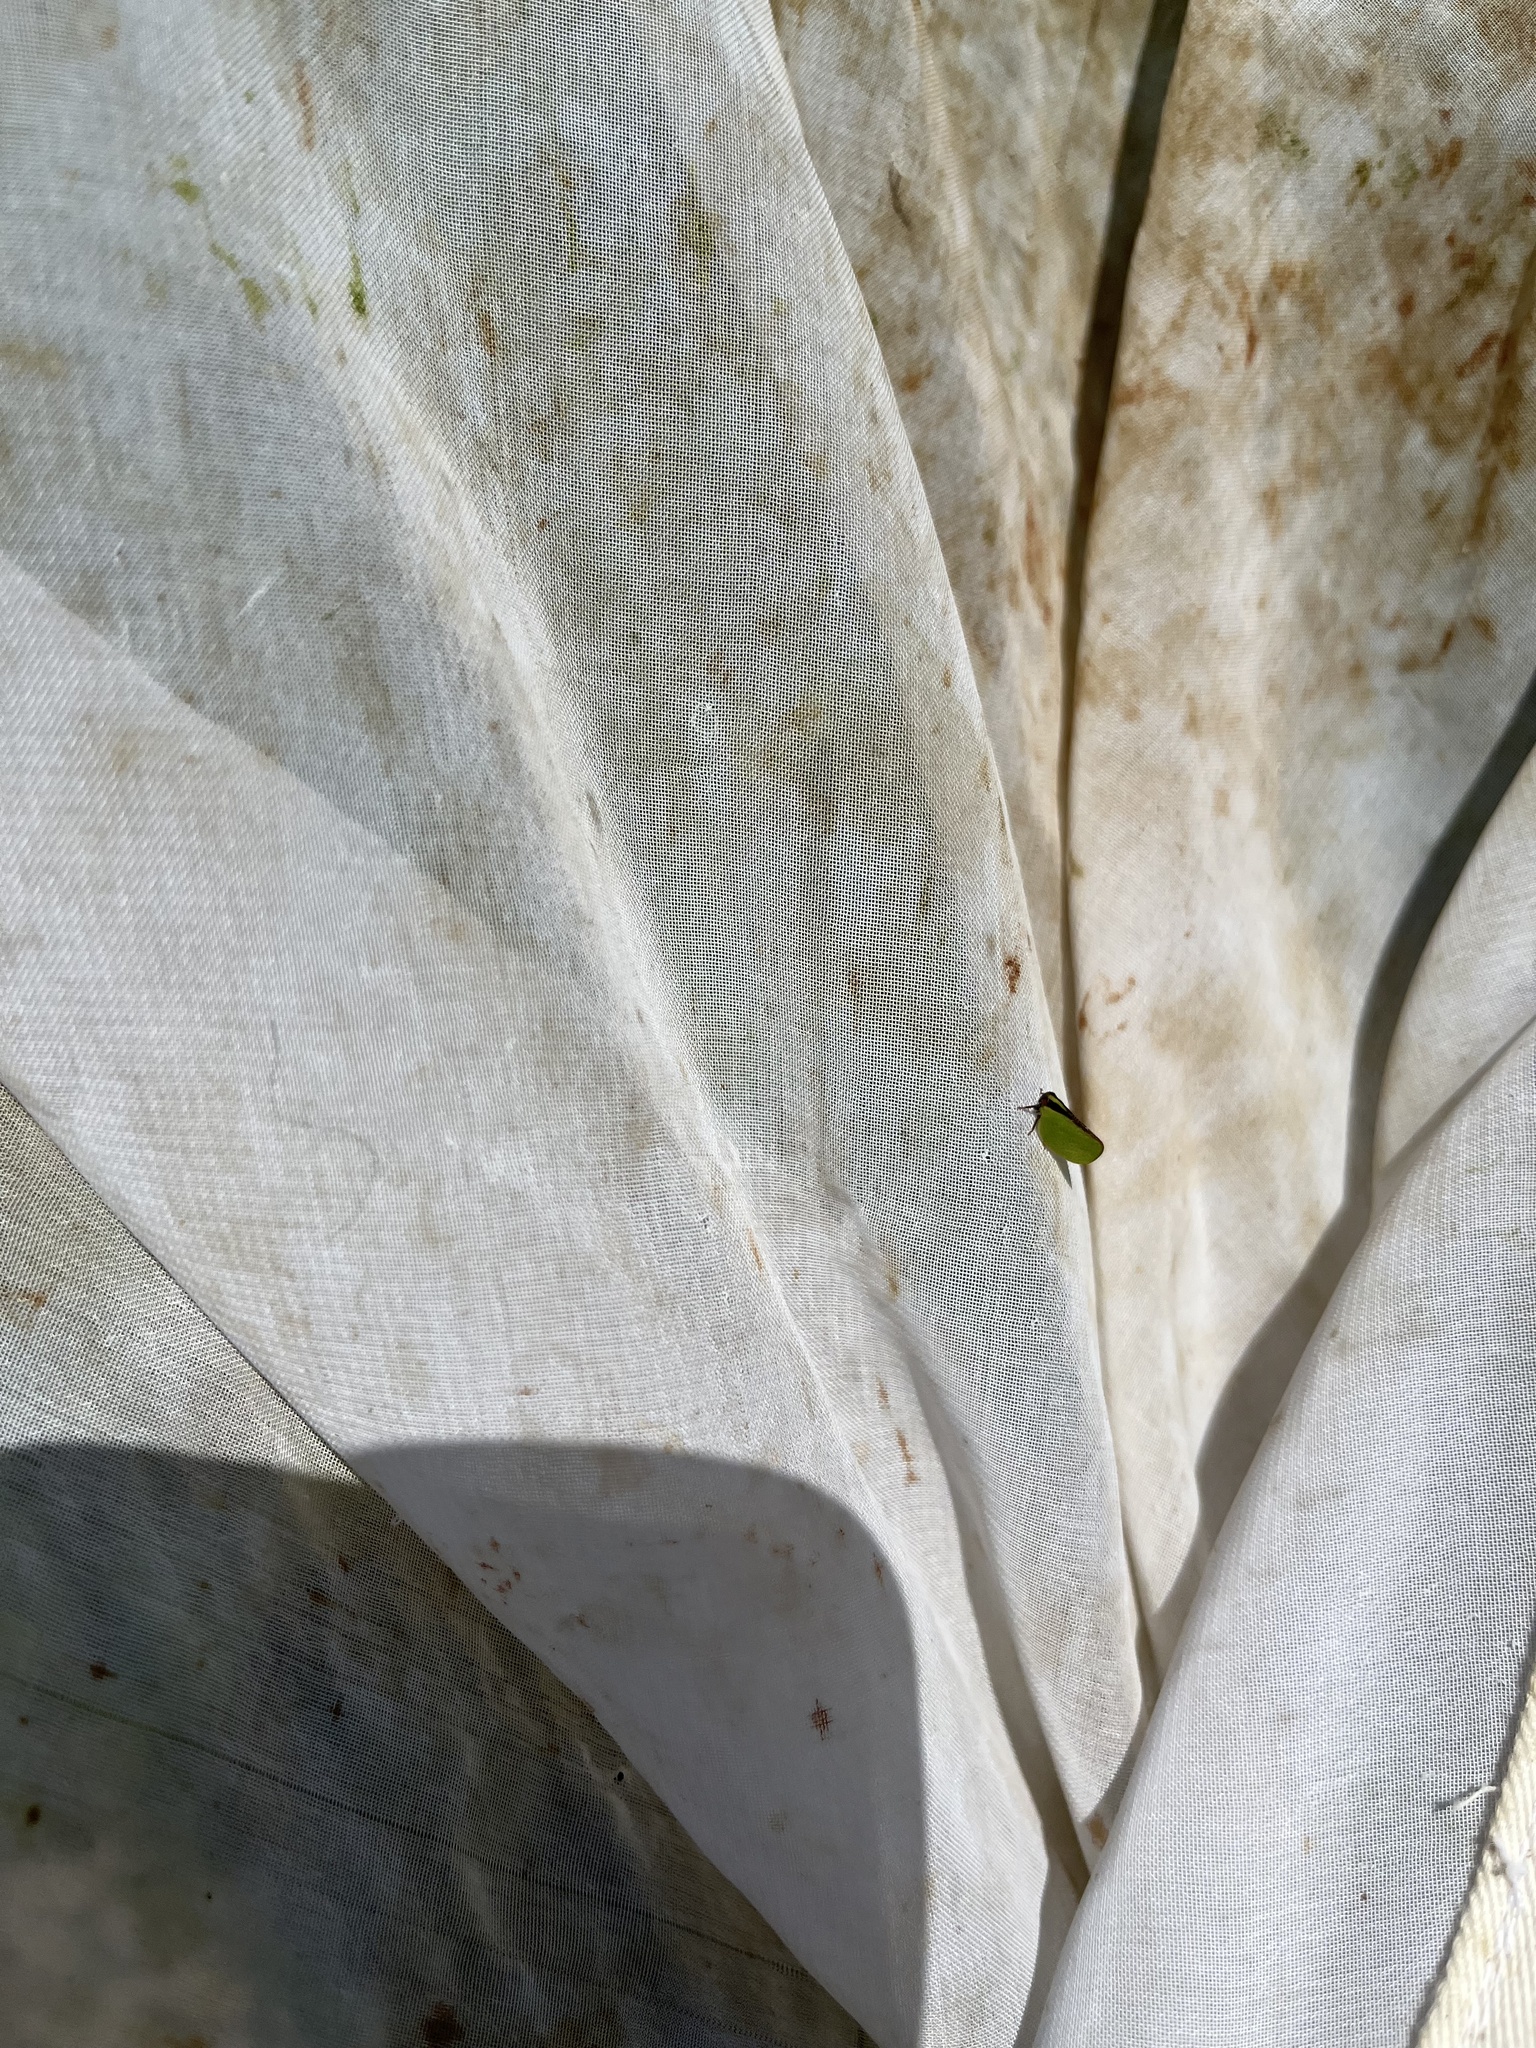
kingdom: Animalia
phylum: Arthropoda
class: Insecta
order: Hemiptera
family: Acanaloniidae
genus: Acanalonia
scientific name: Acanalonia bivittata
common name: Two-striped planthopper
